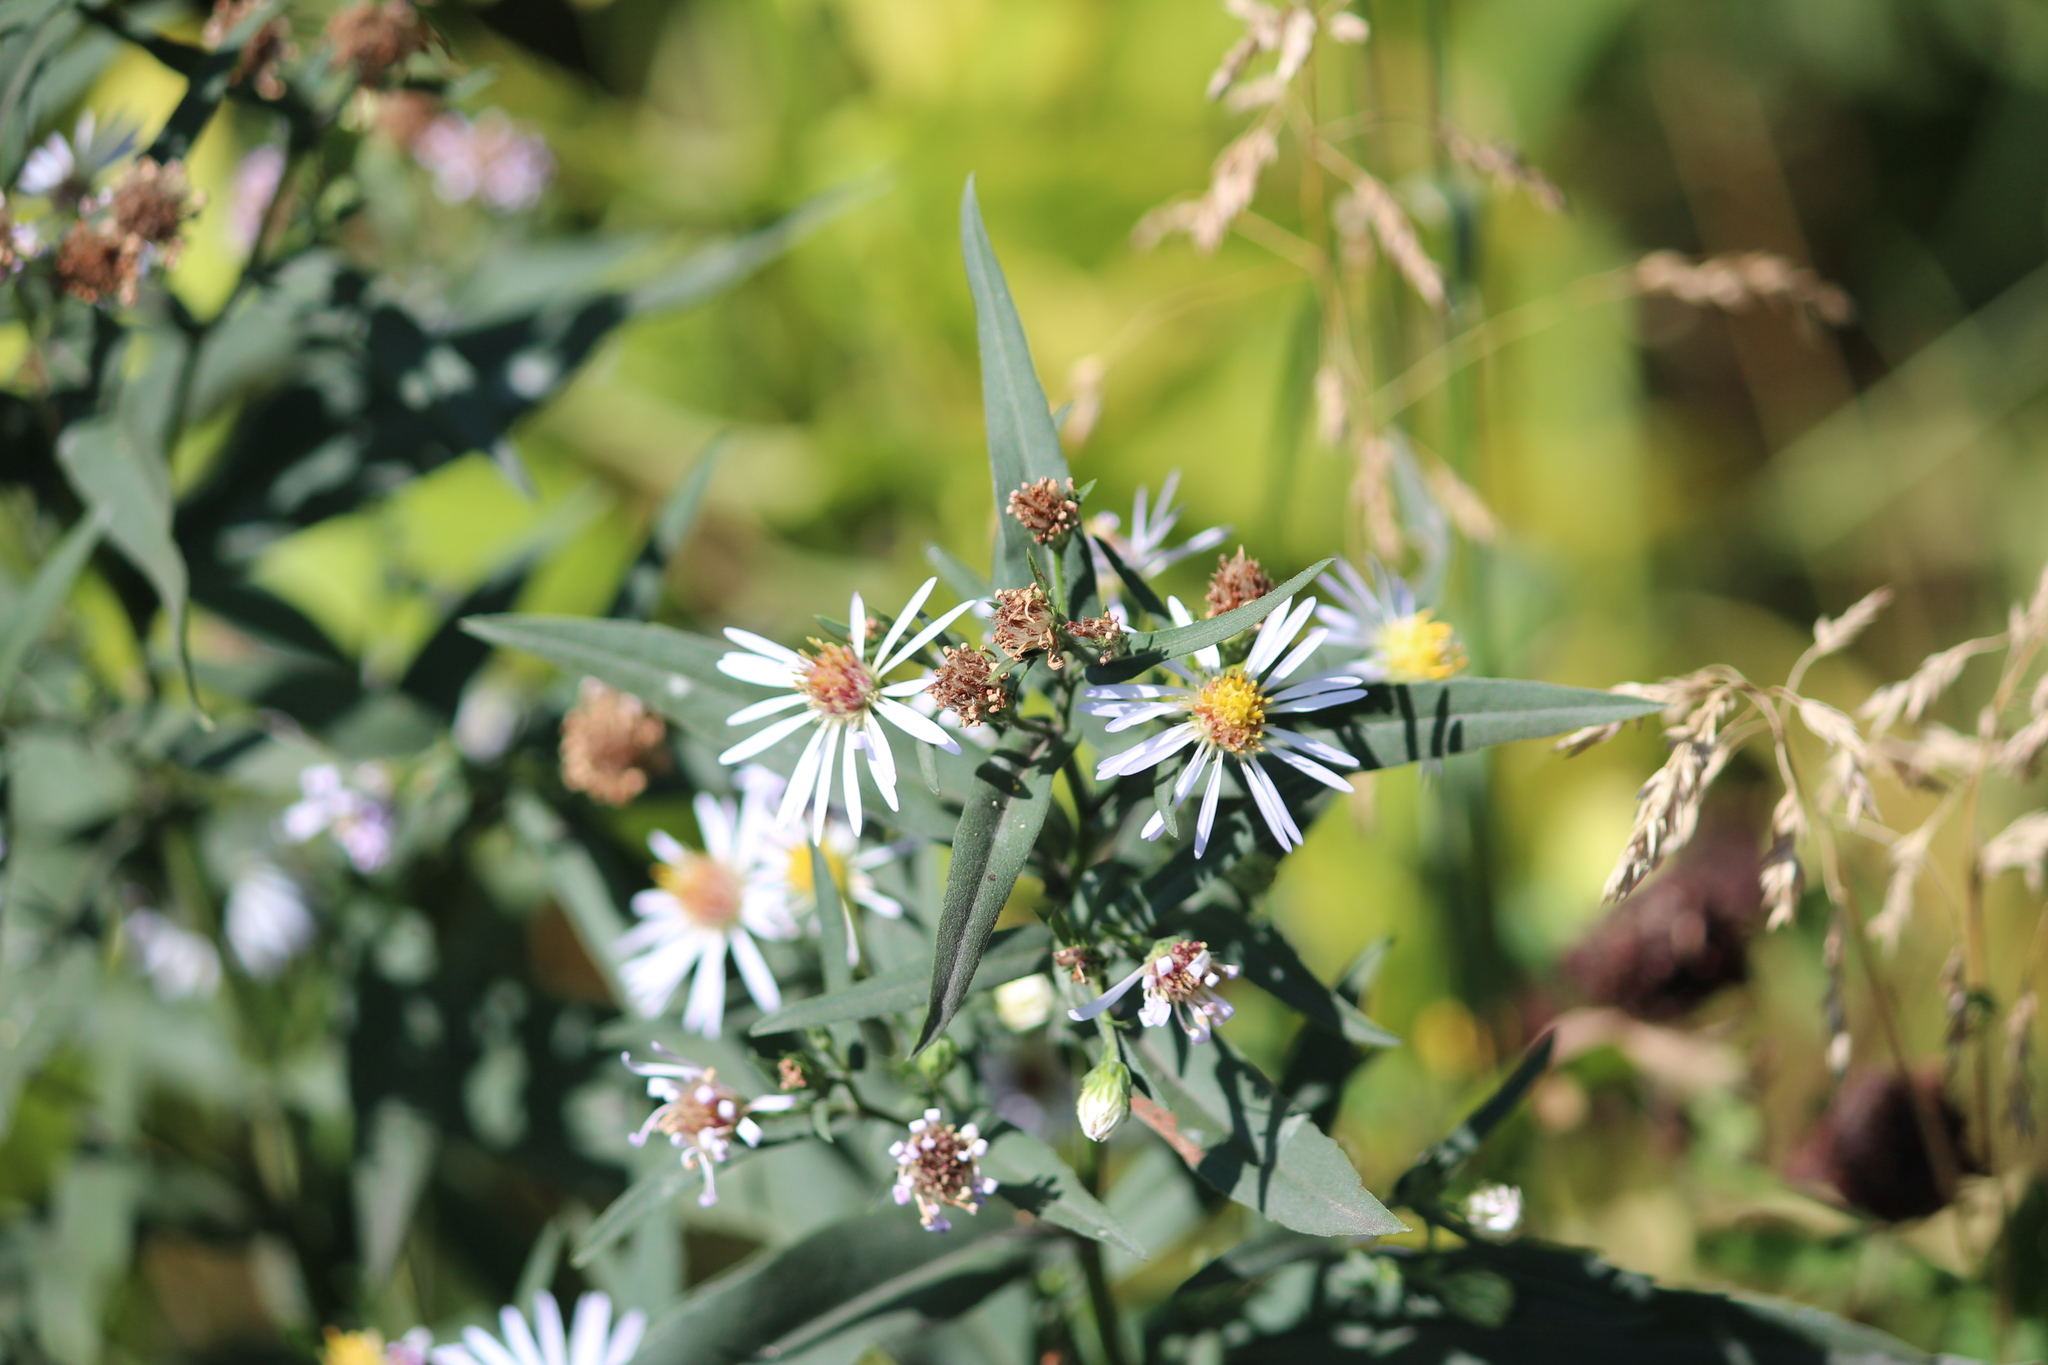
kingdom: Plantae
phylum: Tracheophyta
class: Magnoliopsida
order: Asterales
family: Asteraceae
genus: Symphyotrichum
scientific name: Symphyotrichum novi-belgii
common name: Michaelmas daisy
